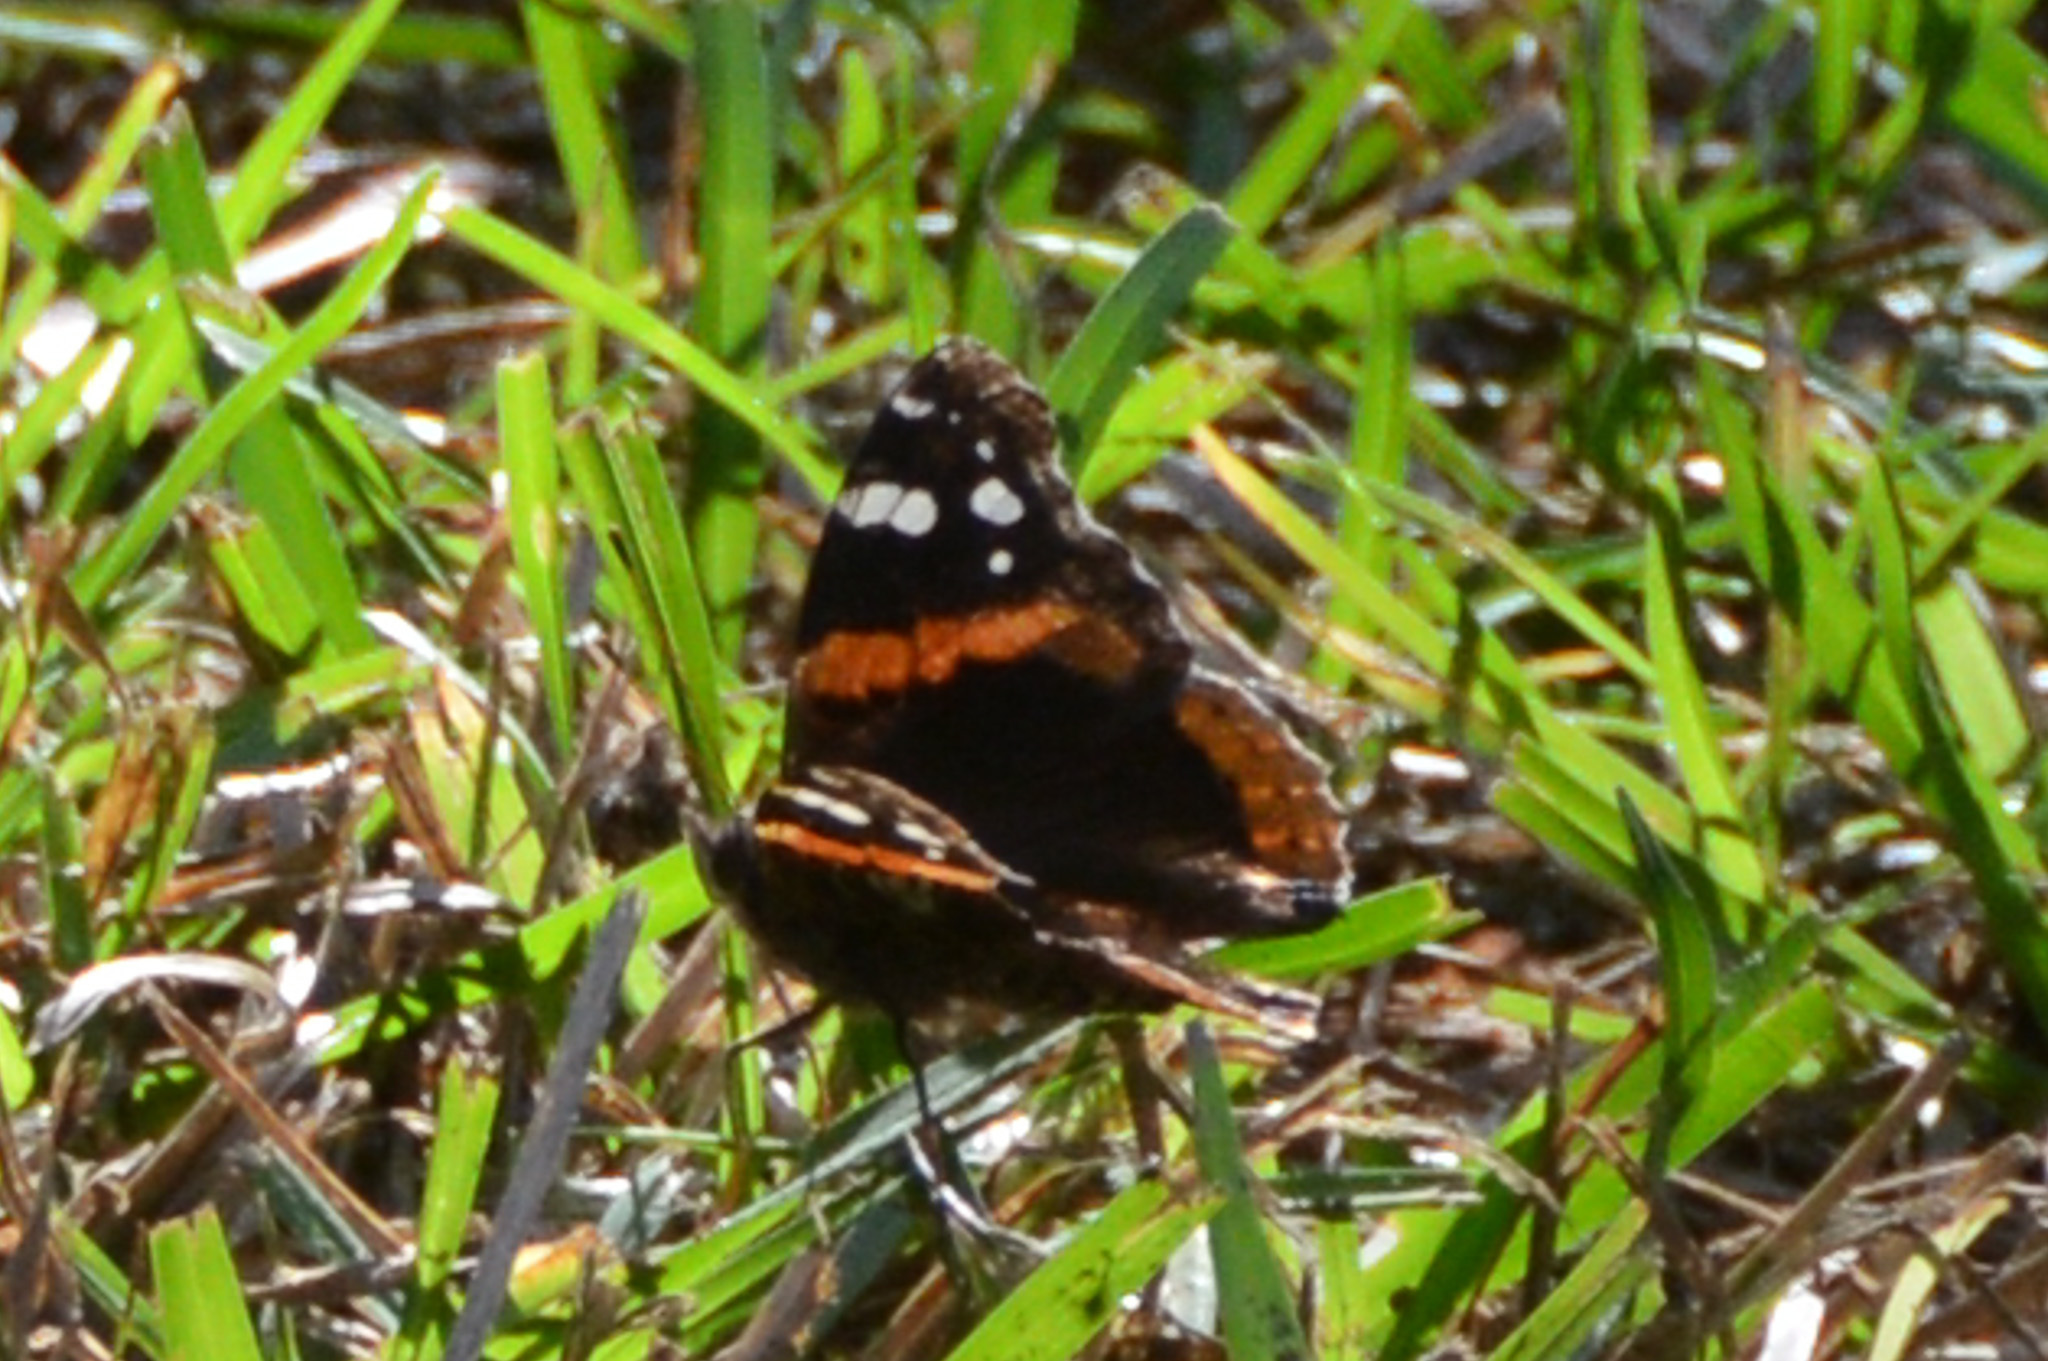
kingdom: Animalia
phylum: Arthropoda
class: Insecta
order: Lepidoptera
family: Nymphalidae
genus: Vanessa
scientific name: Vanessa atalanta
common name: Red admiral
